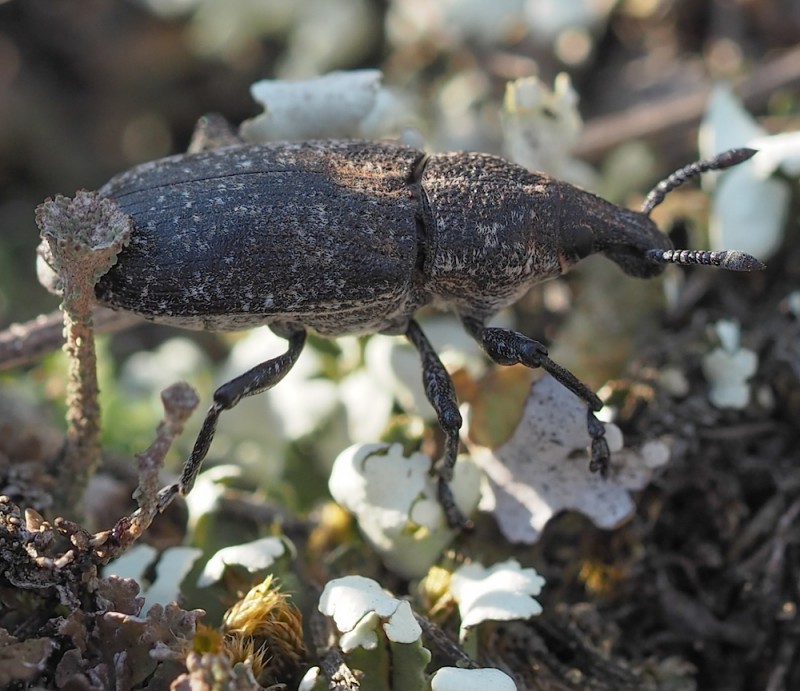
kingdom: Animalia
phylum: Arthropoda
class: Insecta
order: Coleoptera
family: Curculionidae
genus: Rhabdorrhynchus
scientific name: Rhabdorrhynchus echii
